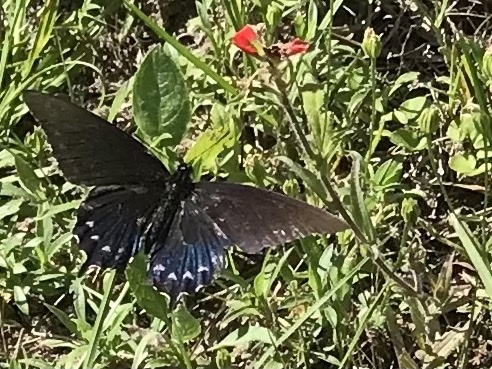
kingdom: Animalia
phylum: Arthropoda
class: Insecta
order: Lepidoptera
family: Papilionidae
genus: Battus
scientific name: Battus philenor
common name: Pipevine swallowtail
